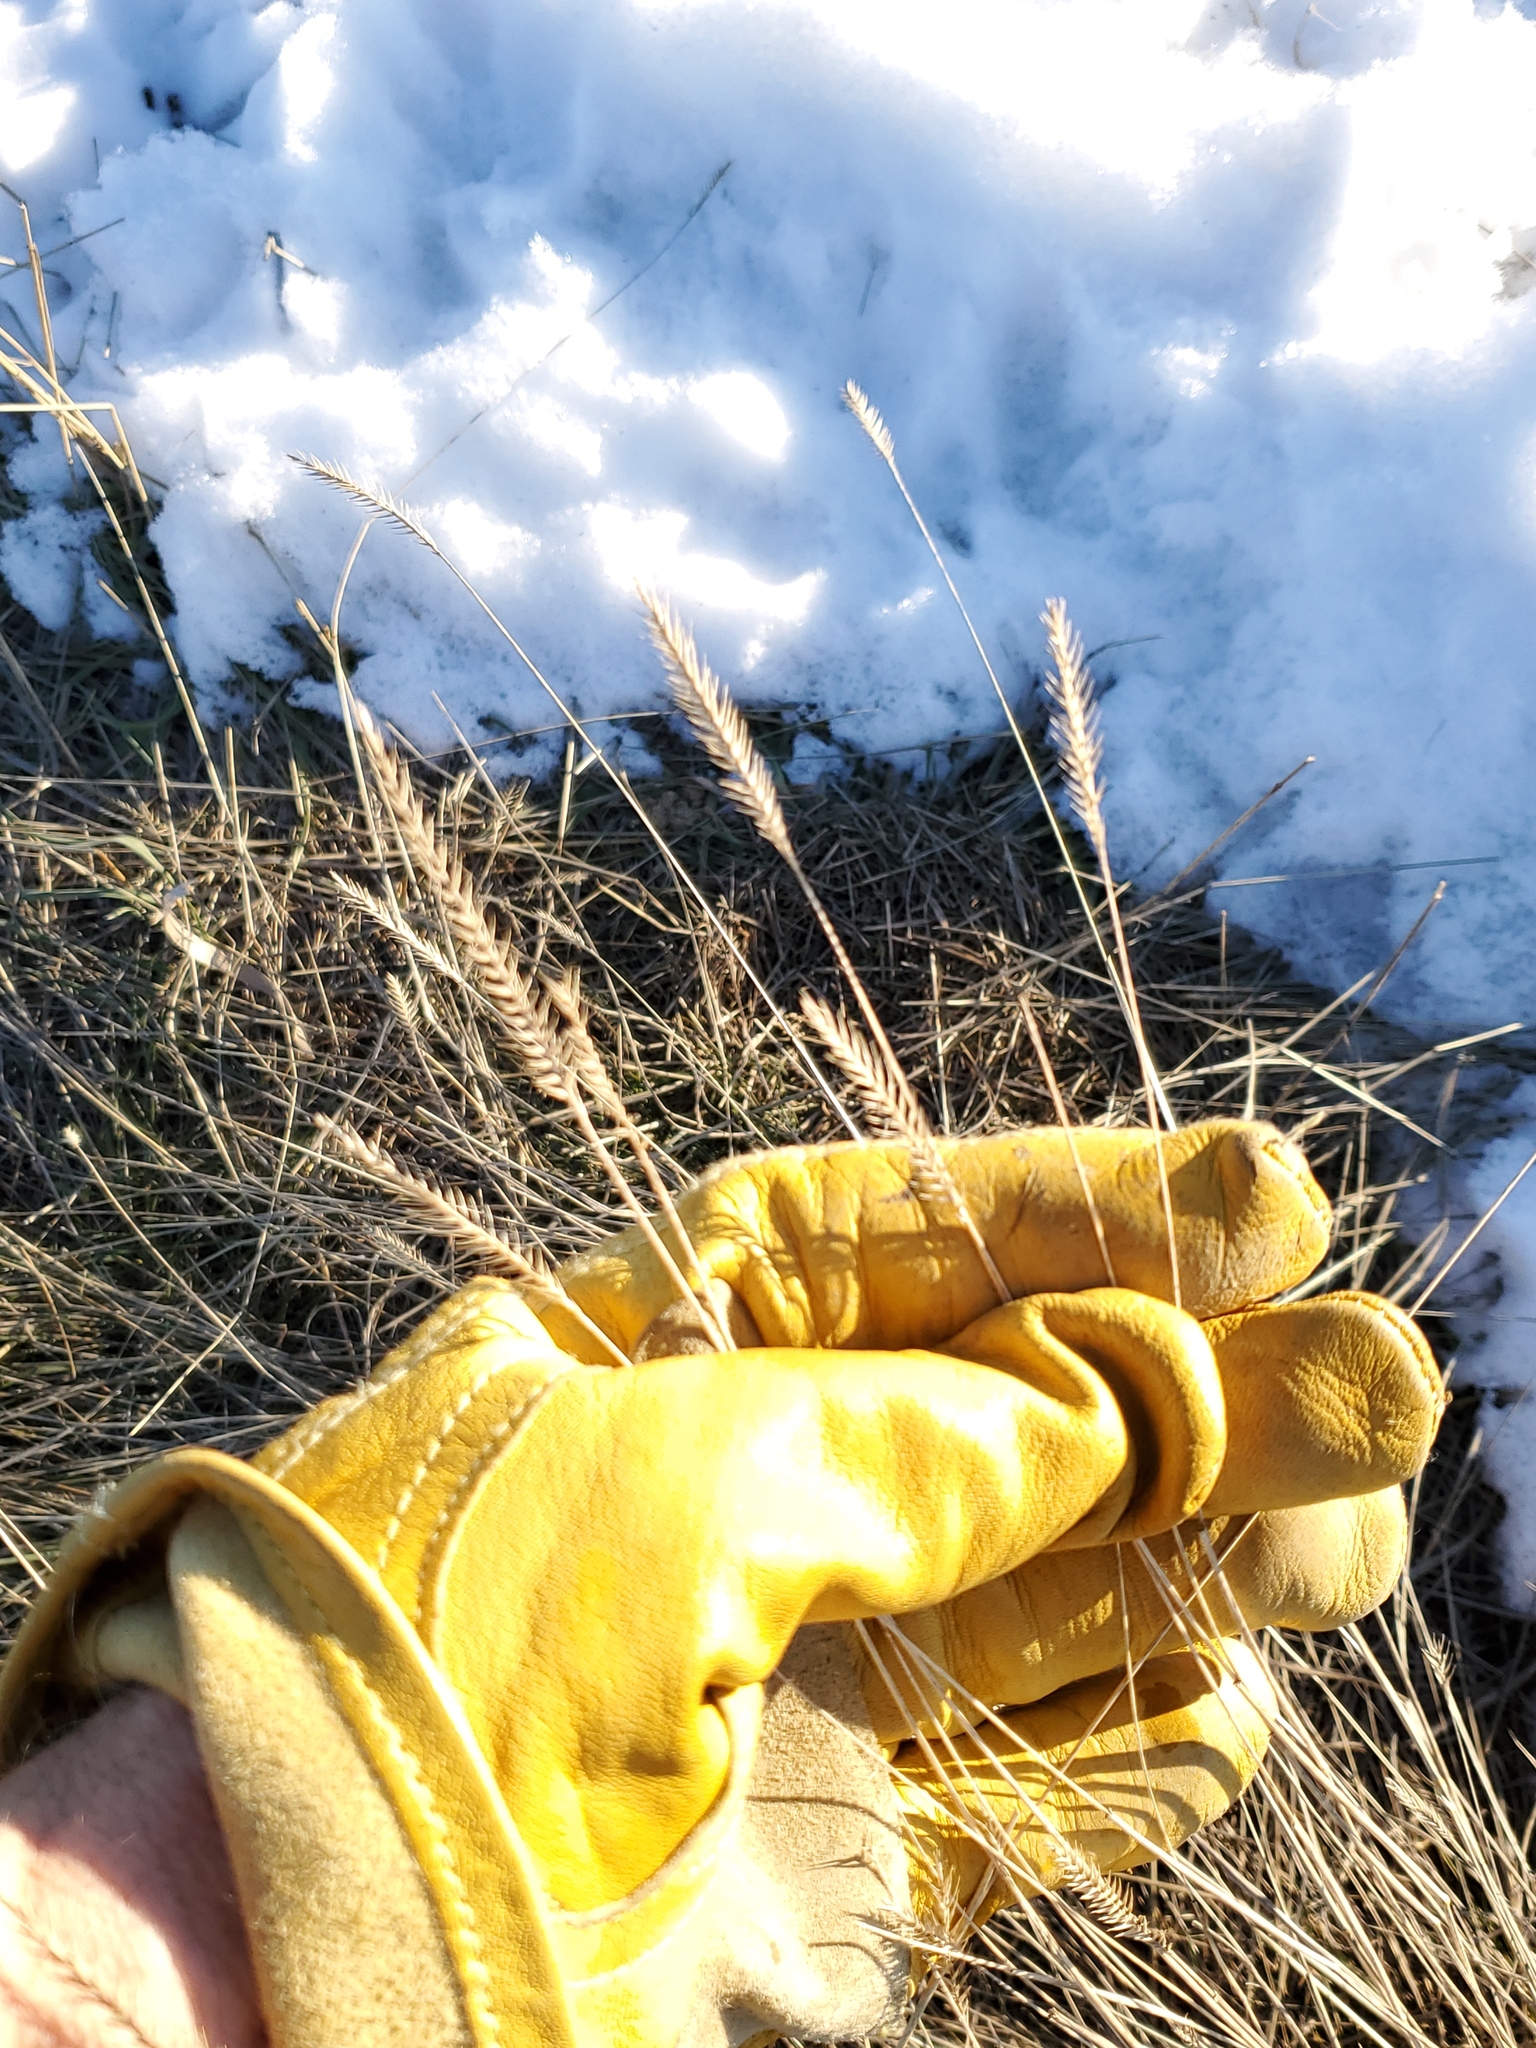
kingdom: Plantae
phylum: Tracheophyta
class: Liliopsida
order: Poales
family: Poaceae
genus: Agropyron
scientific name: Agropyron cristatum
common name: Crested wheatgrass
